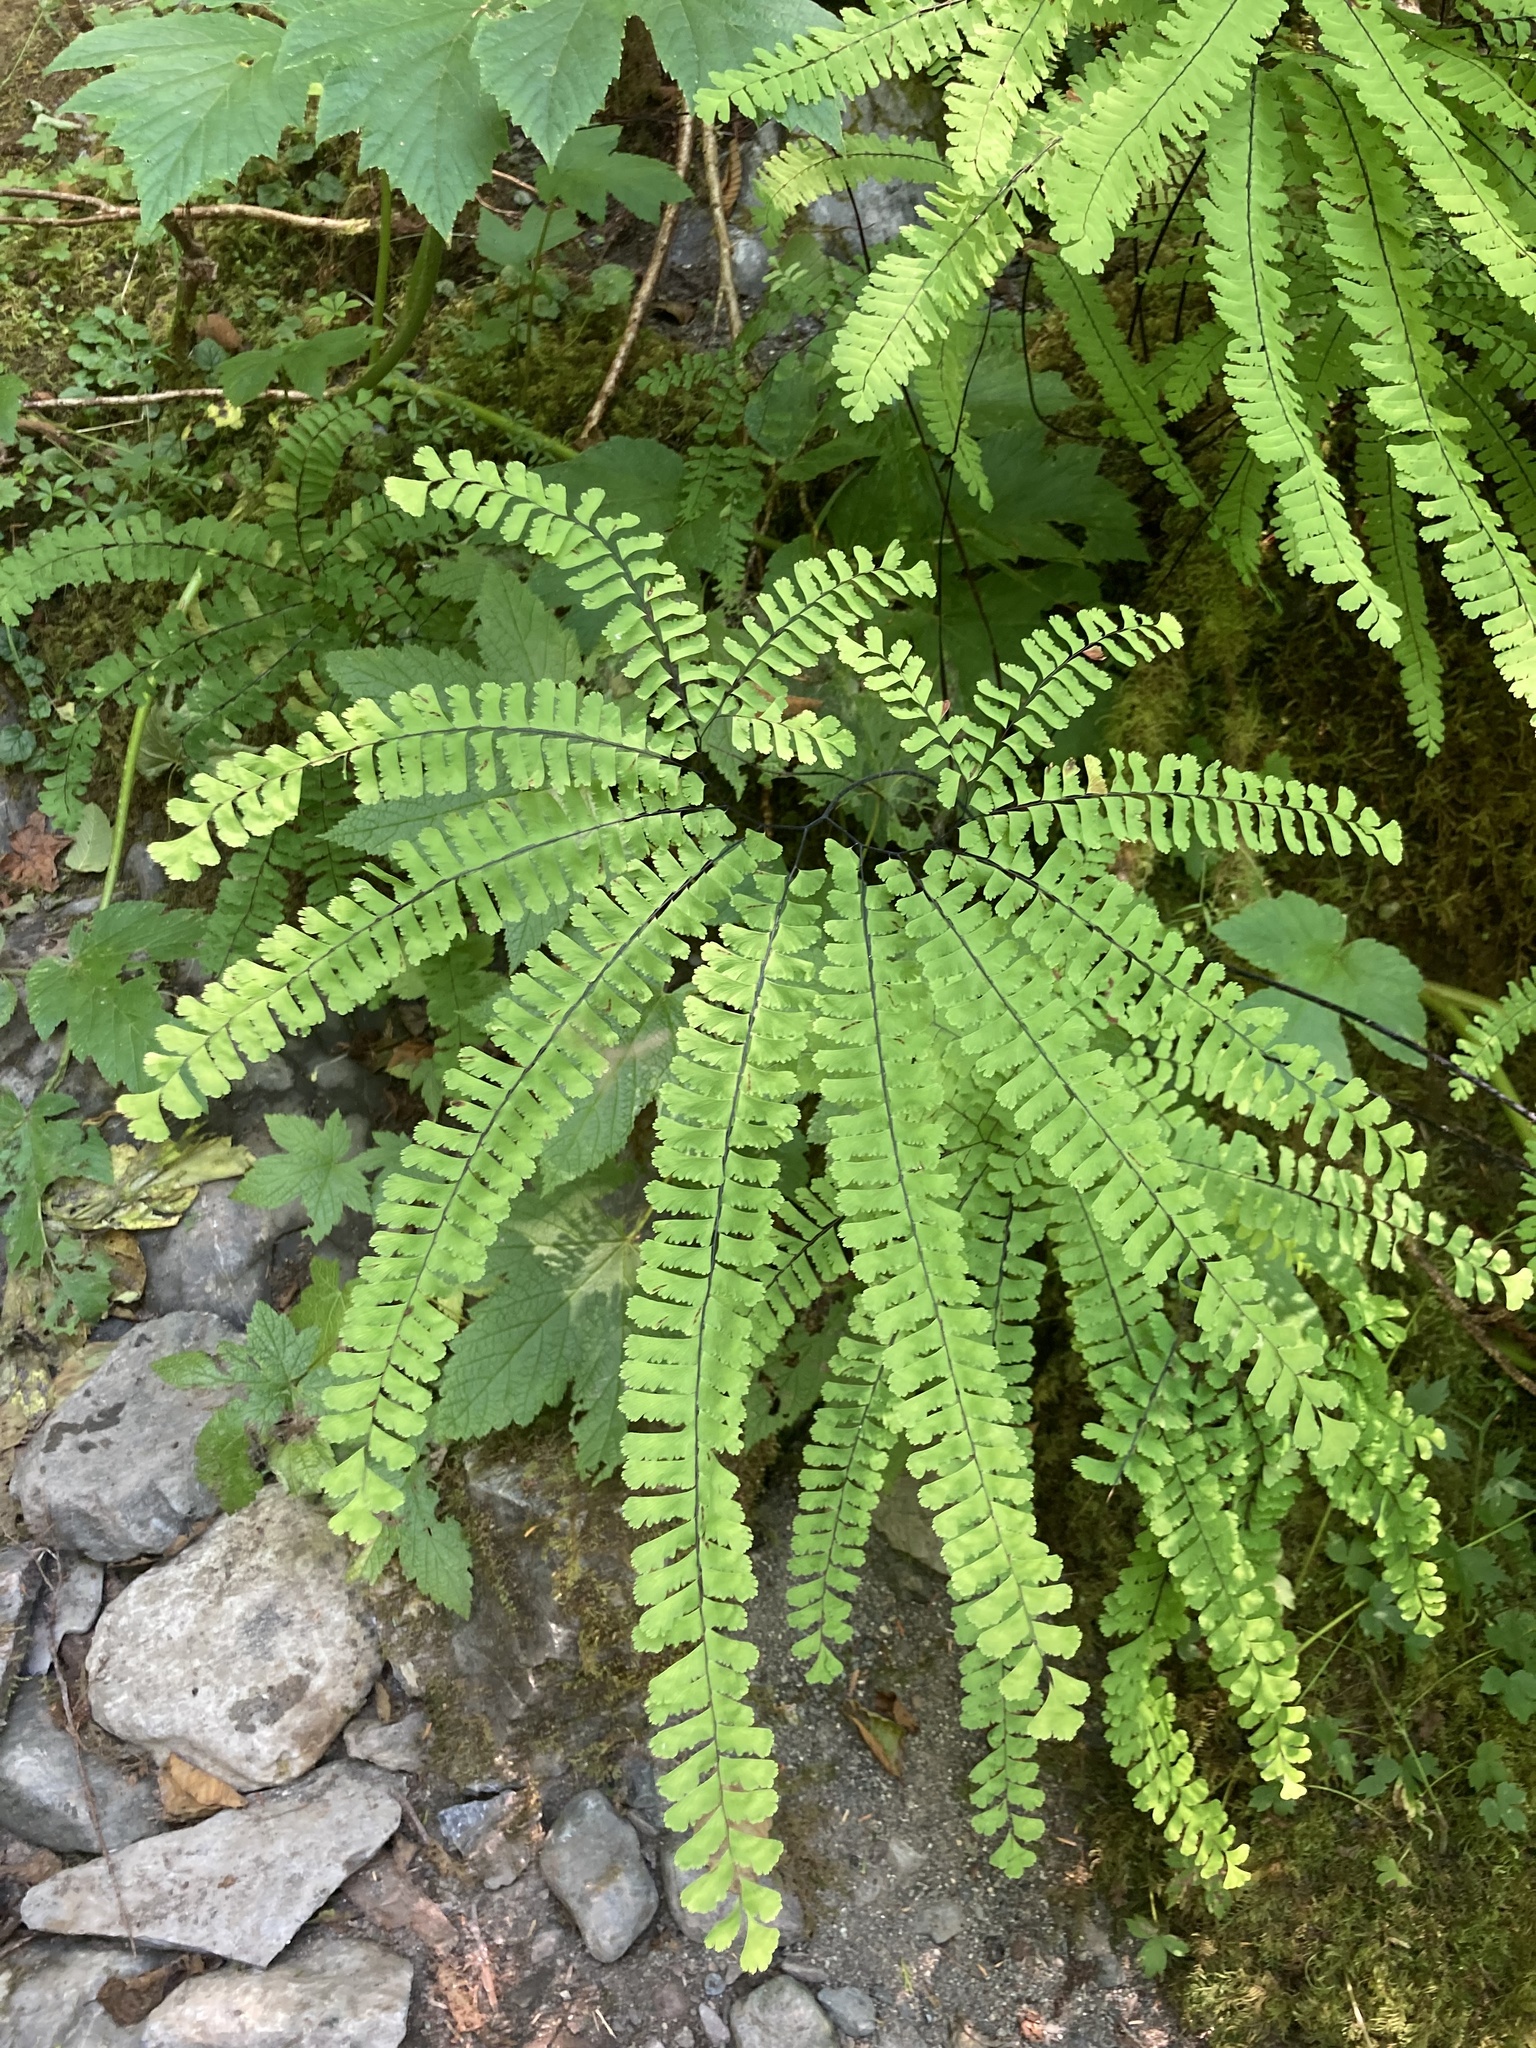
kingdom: Plantae
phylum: Tracheophyta
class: Polypodiopsida
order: Polypodiales
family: Pteridaceae
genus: Adiantum
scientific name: Adiantum aleuticum
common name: Aleutian maidenhair fern
